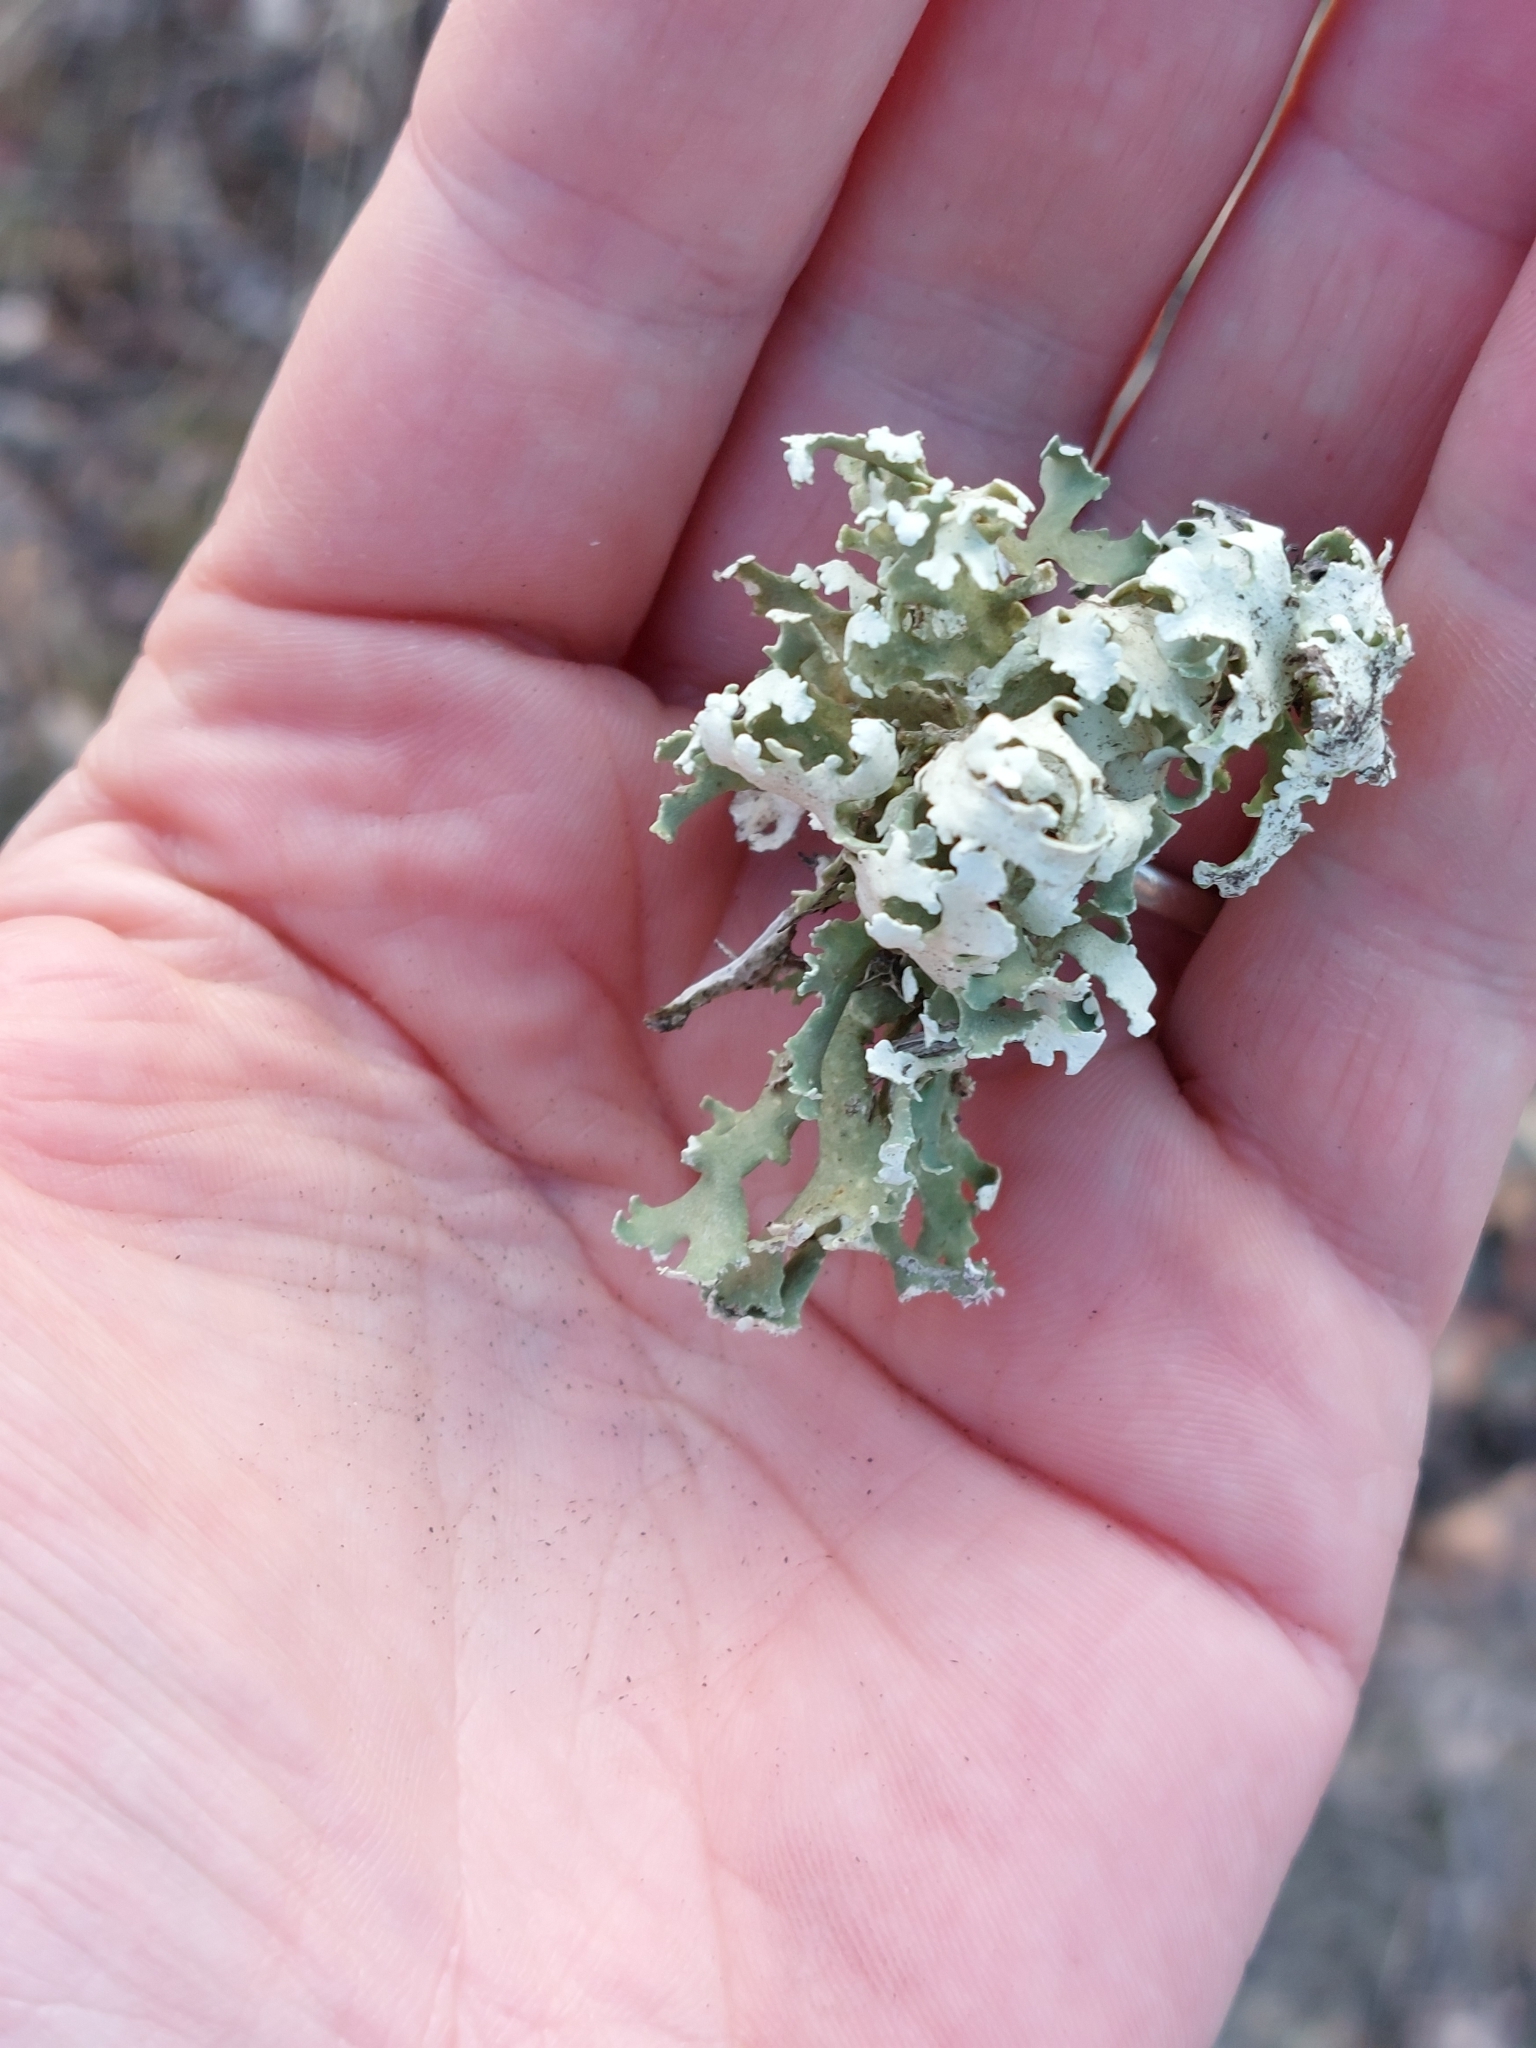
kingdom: Fungi
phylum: Ascomycota
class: Lecanoromycetes
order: Lecanorales
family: Cladoniaceae
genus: Cladonia
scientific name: Cladonia foliacea
